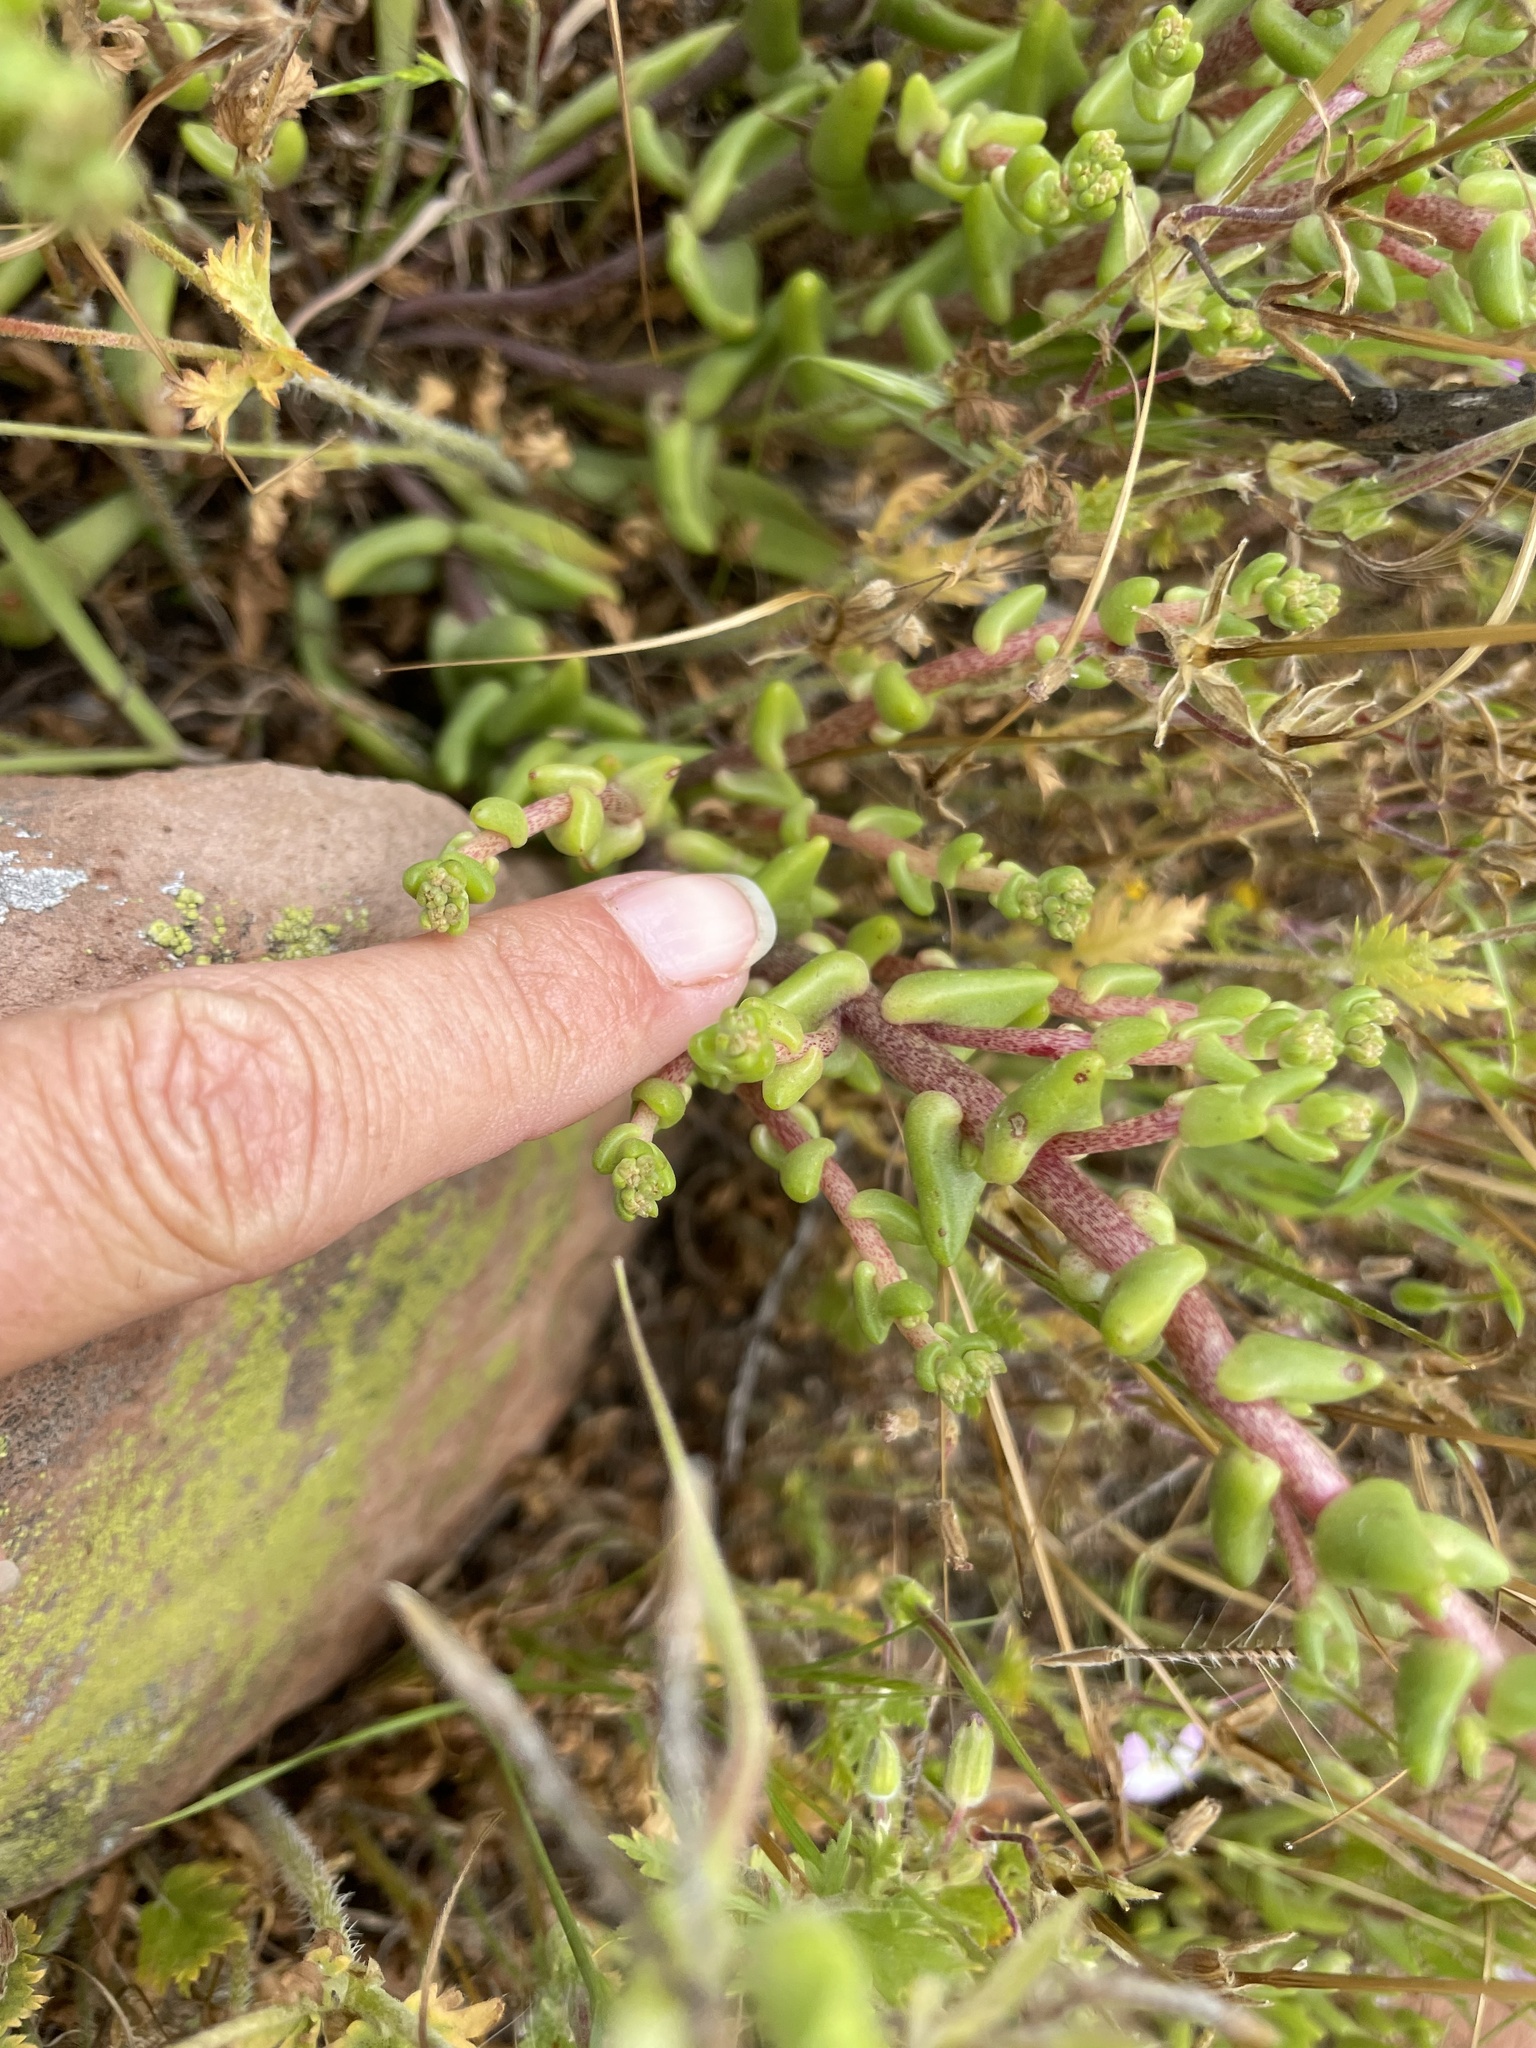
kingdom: Plantae
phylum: Tracheophyta
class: Magnoliopsida
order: Saxifragales
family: Crassulaceae
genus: Dudleya
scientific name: Dudleya variegata
